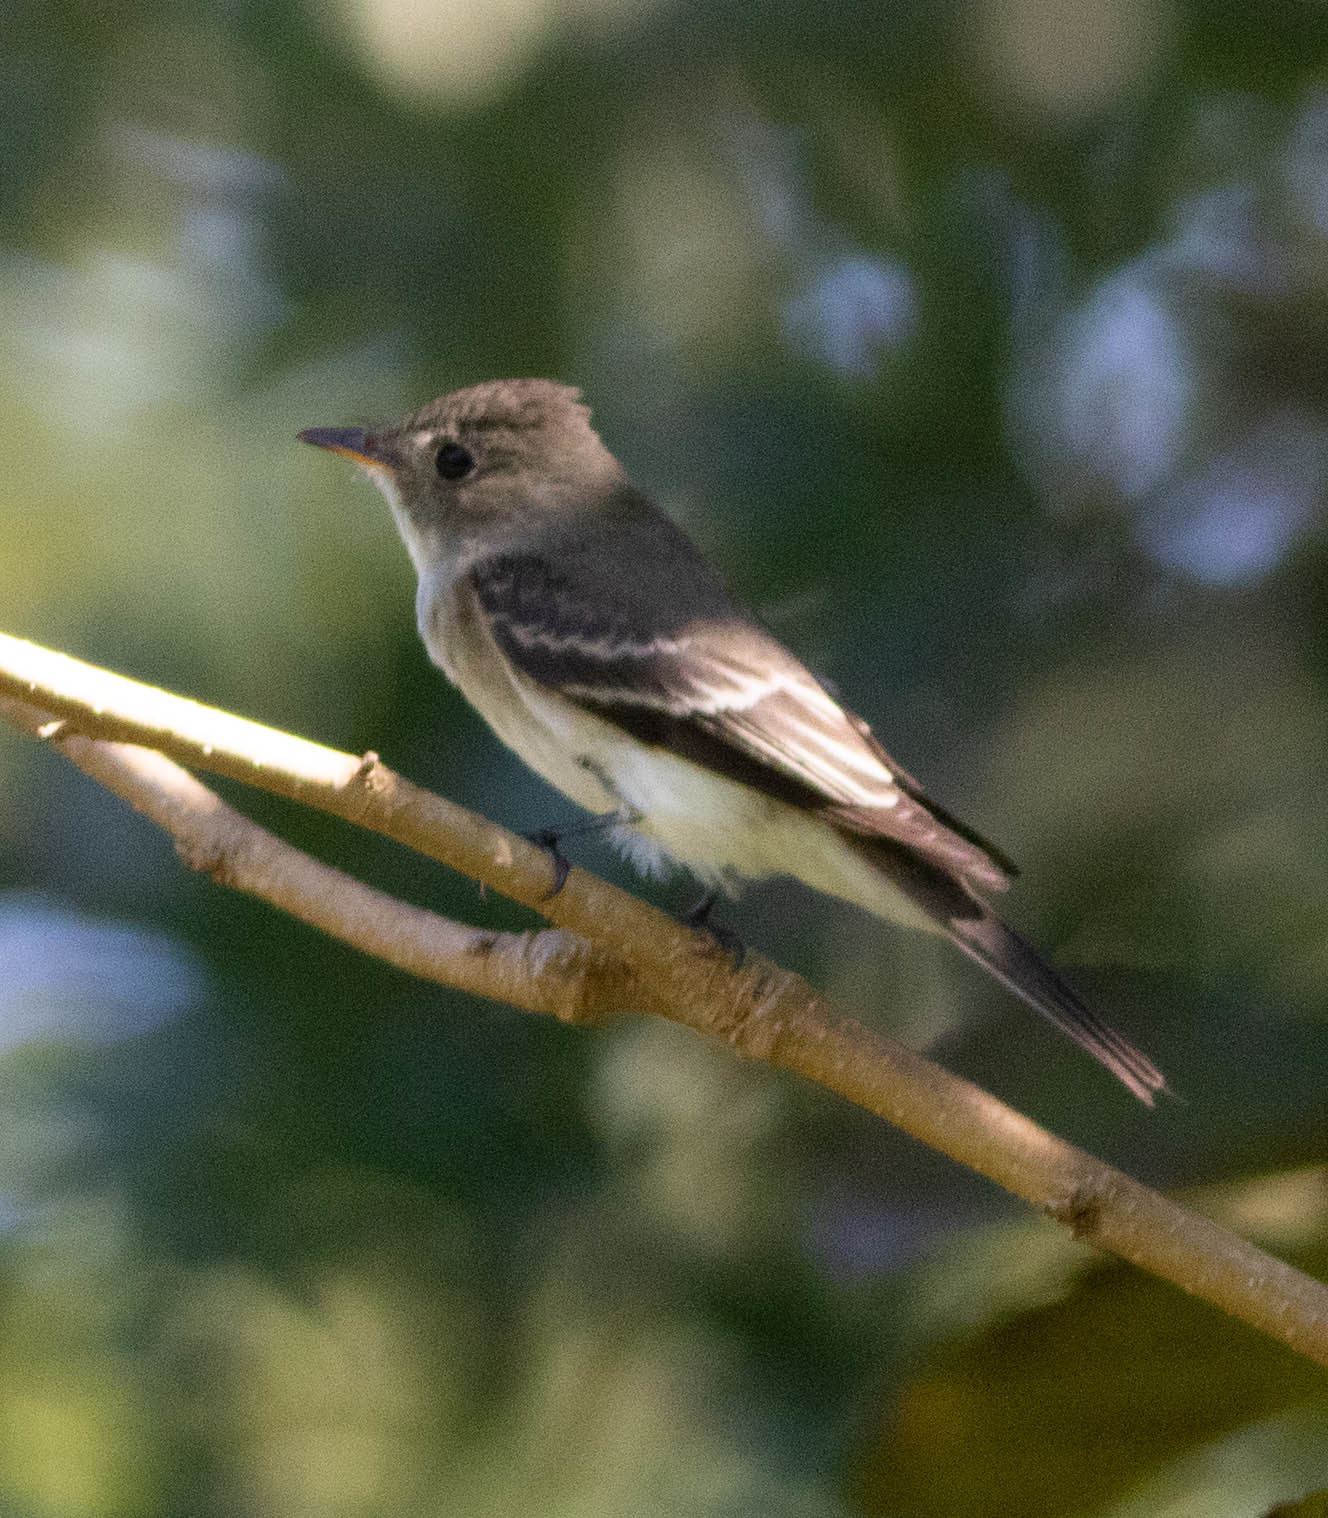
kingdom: Animalia
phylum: Chordata
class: Aves
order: Passeriformes
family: Tyrannidae
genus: Contopus
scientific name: Contopus virens
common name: Eastern wood-pewee
